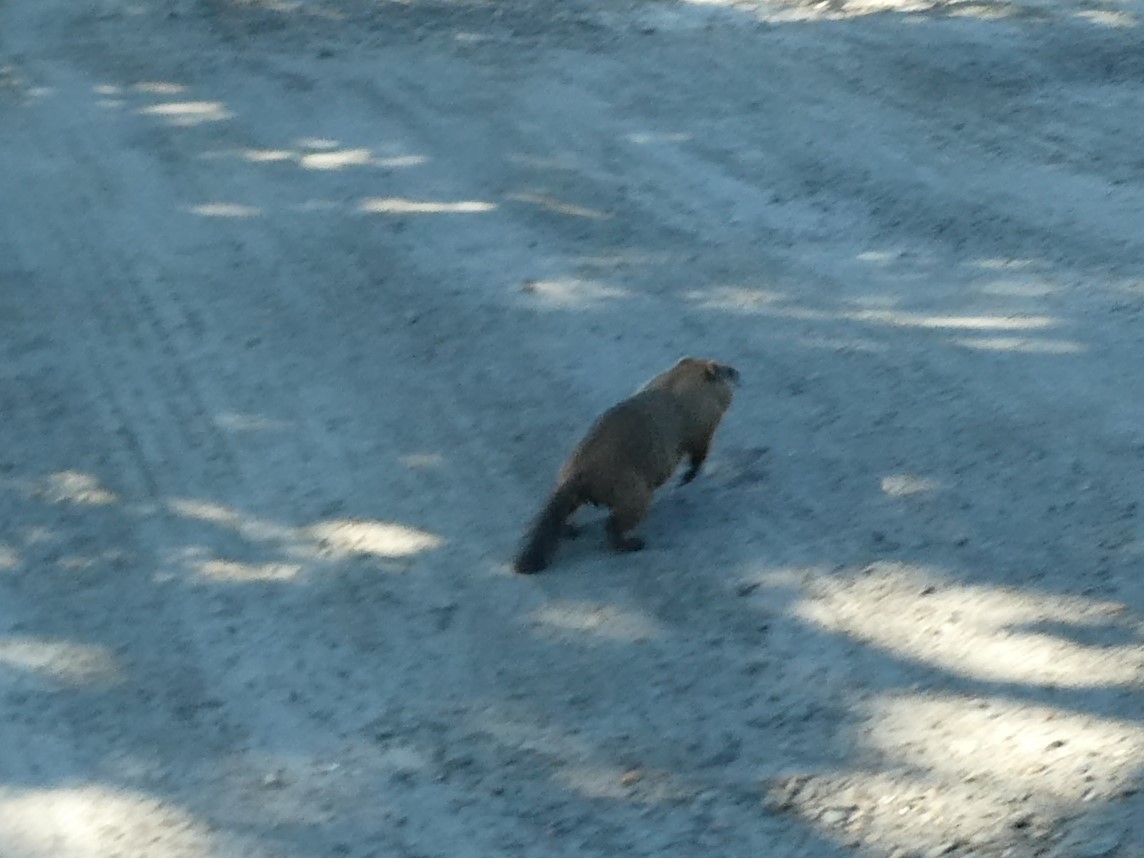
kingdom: Animalia
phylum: Chordata
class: Mammalia
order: Rodentia
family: Sciuridae
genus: Marmota
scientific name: Marmota monax
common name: Groundhog
